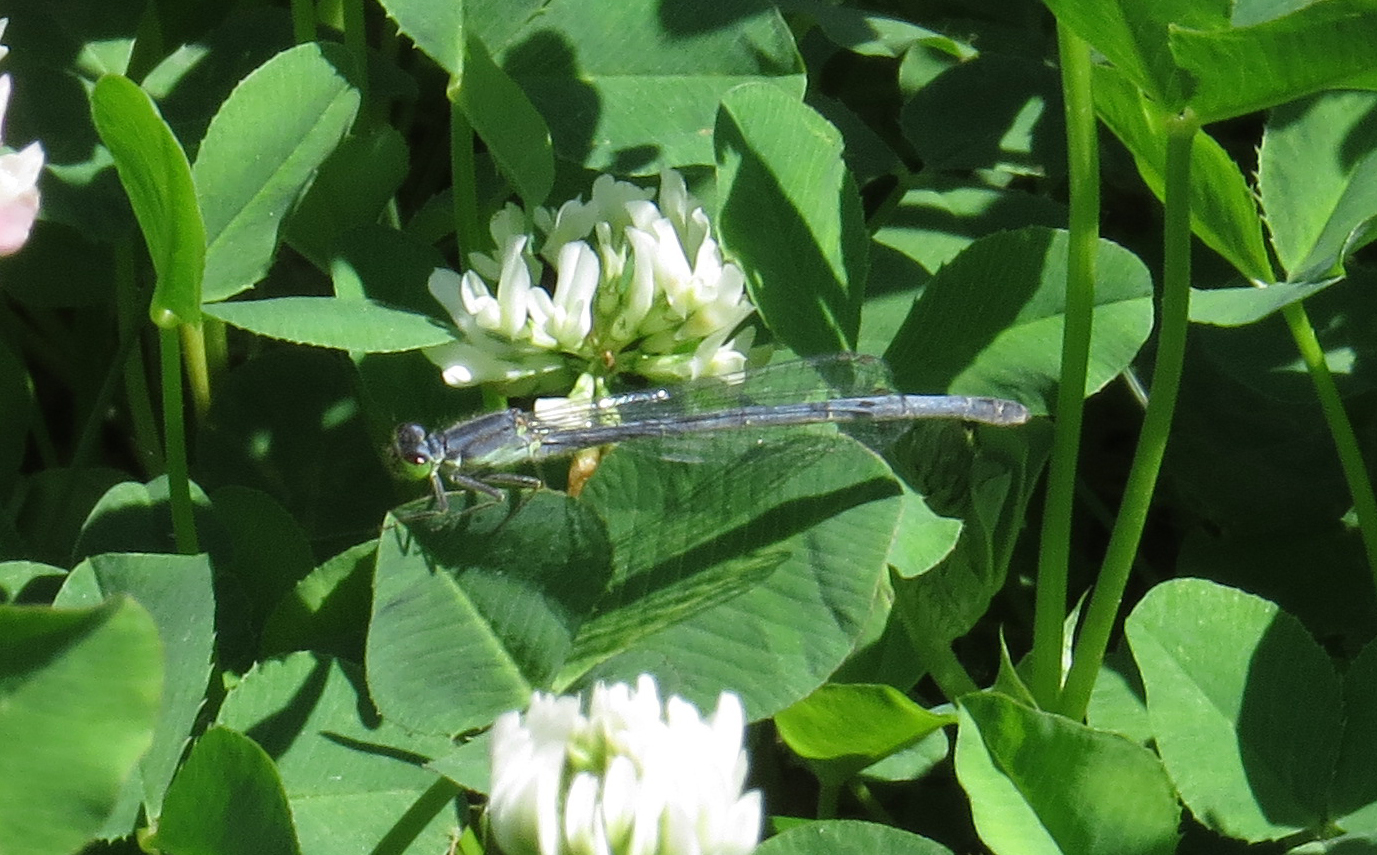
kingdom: Animalia
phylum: Arthropoda
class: Insecta
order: Odonata
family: Coenagrionidae
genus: Ischnura
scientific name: Ischnura verticalis
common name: Eastern forktail
